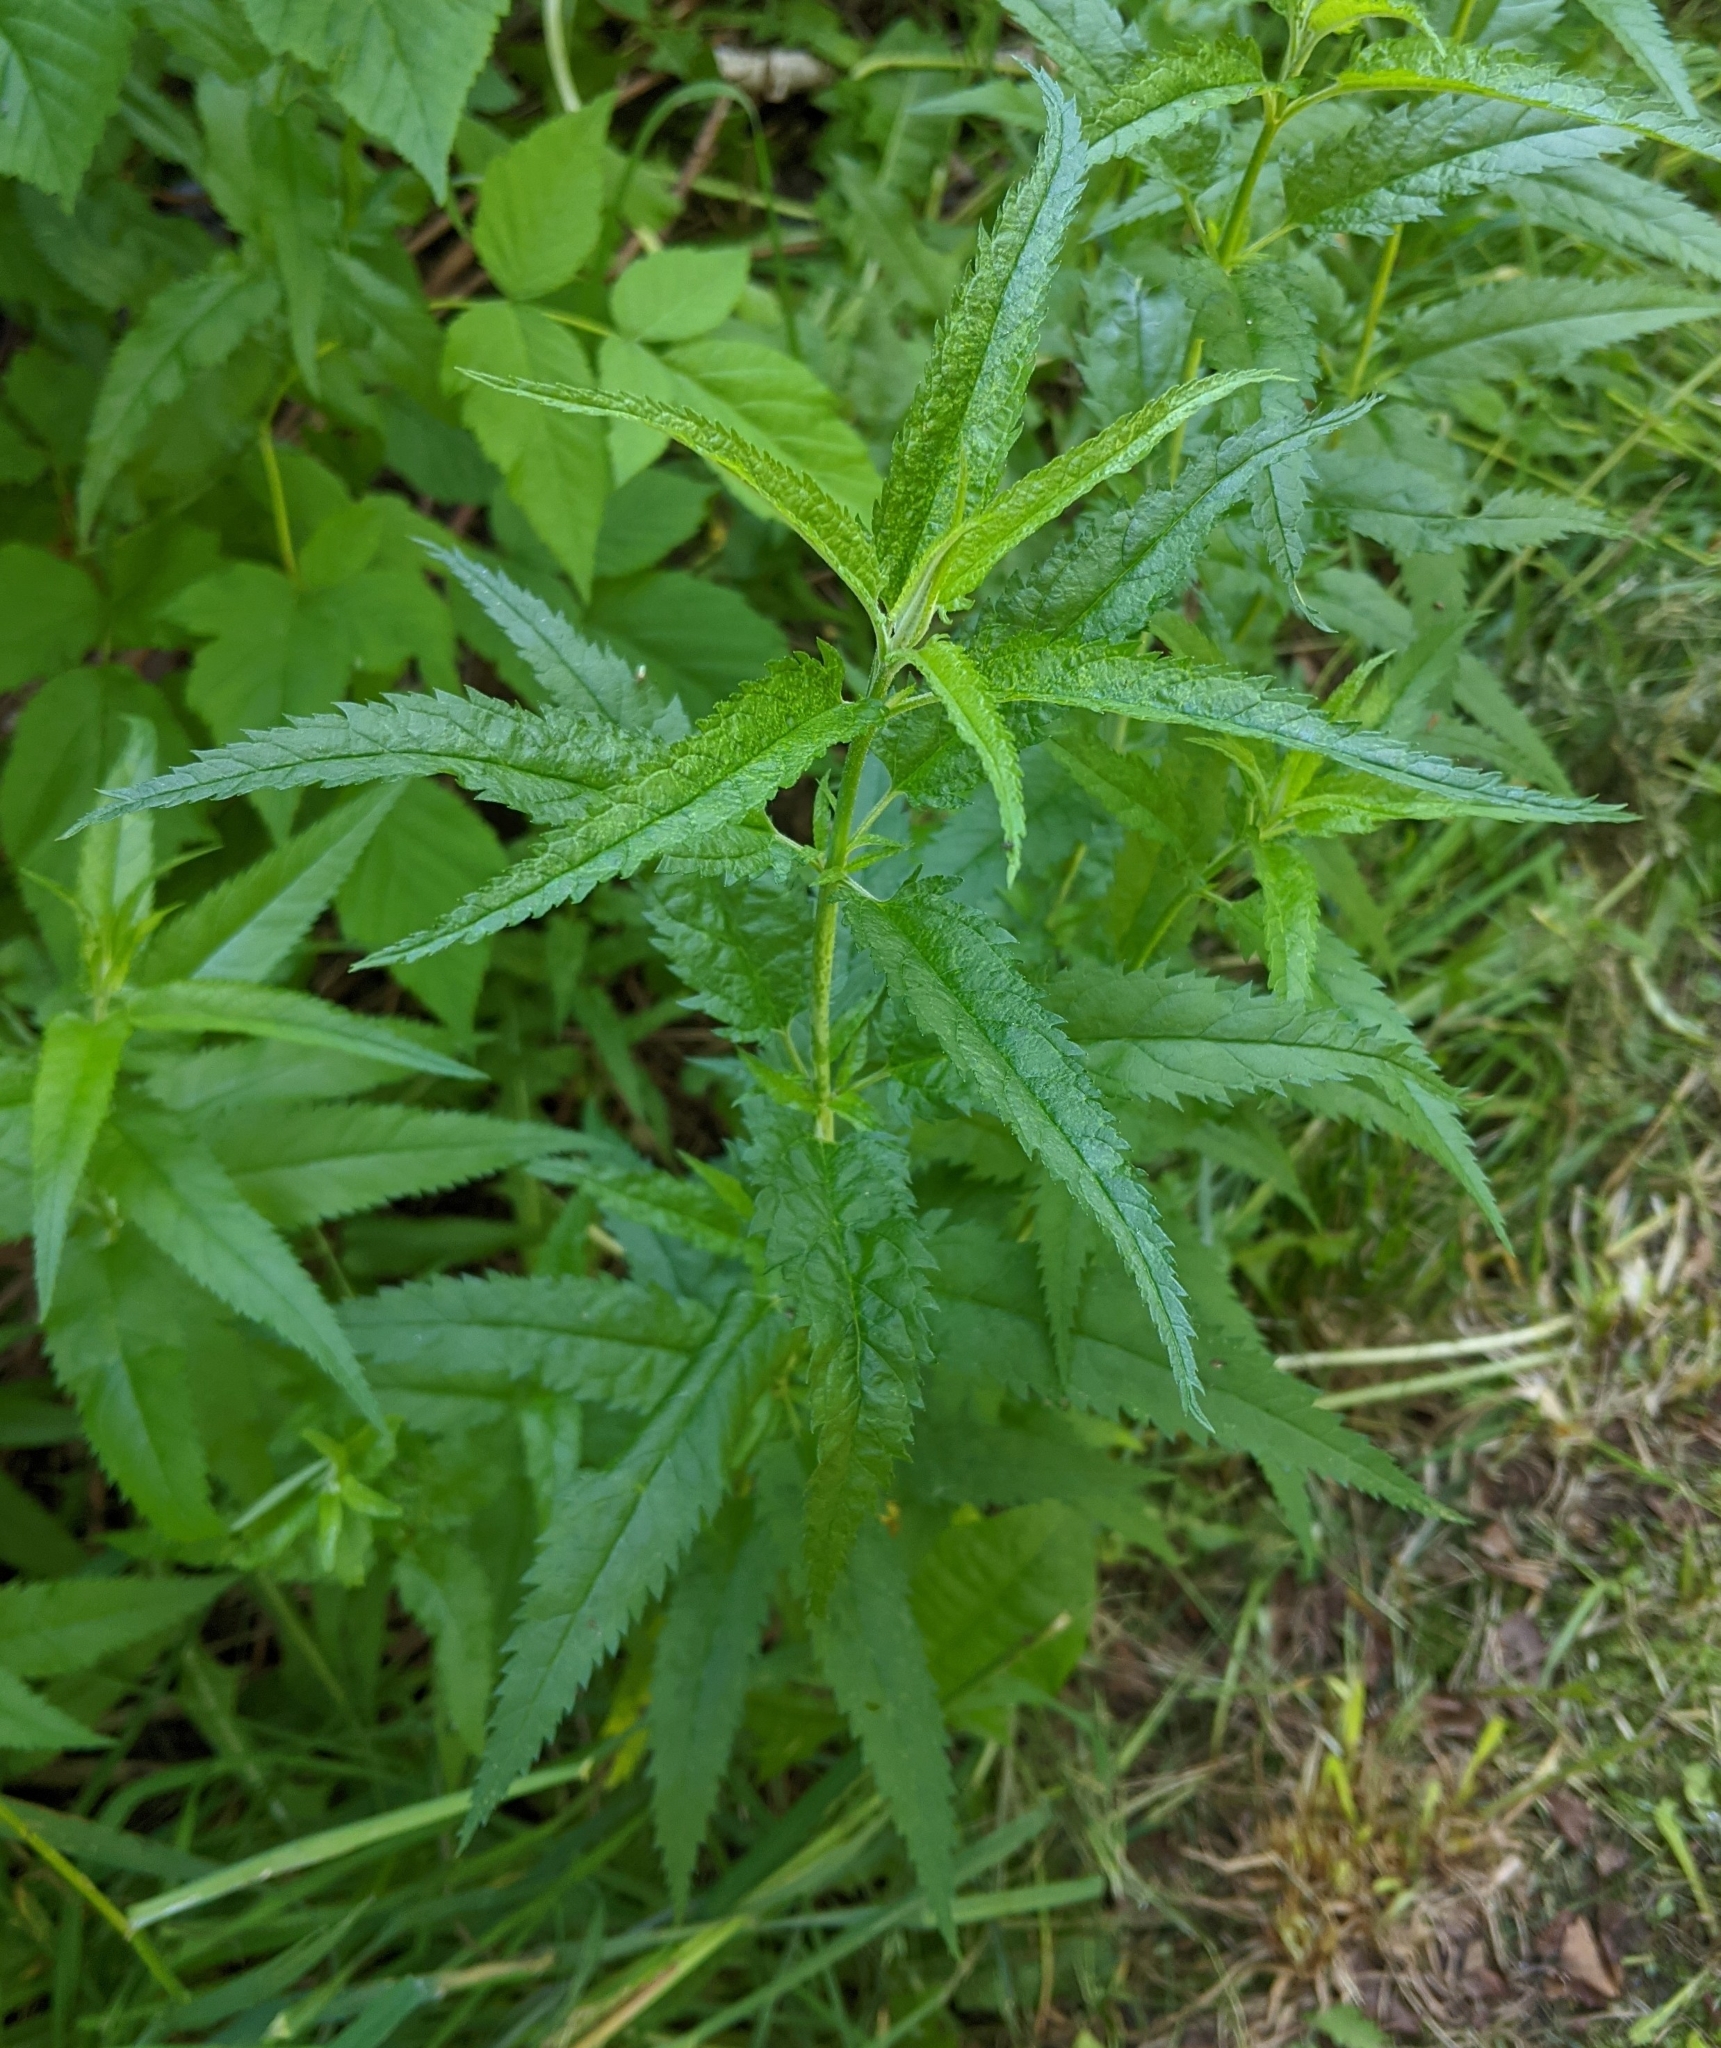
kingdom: Plantae
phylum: Tracheophyta
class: Magnoliopsida
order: Lamiales
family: Plantaginaceae
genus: Veronica
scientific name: Veronica longifolia
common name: Garden speedwell
